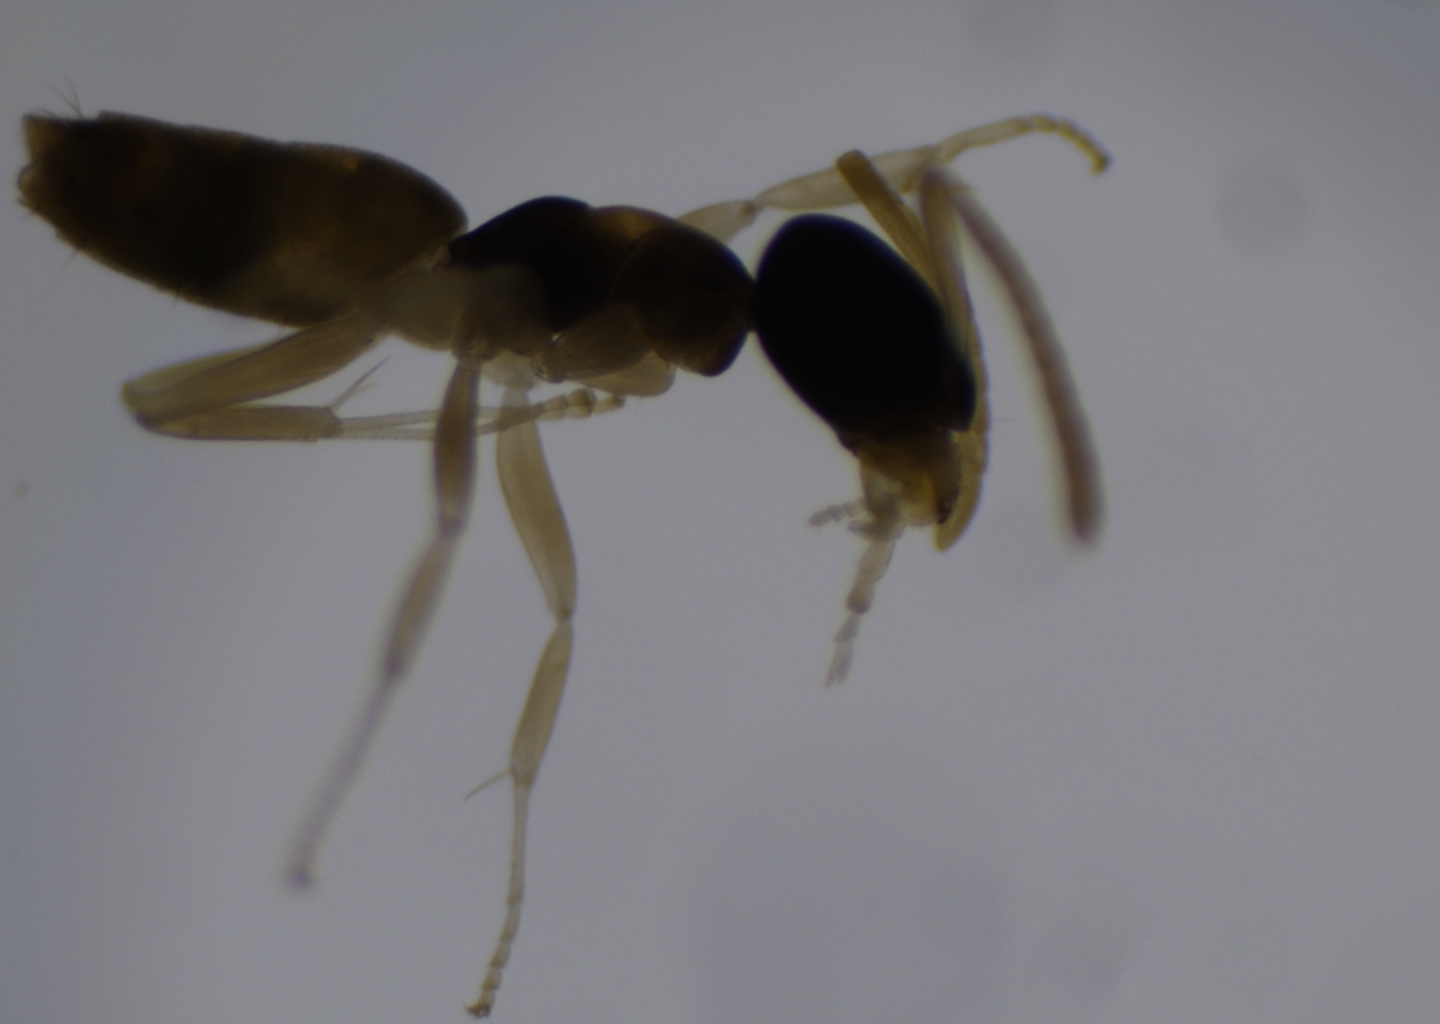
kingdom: Animalia
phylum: Arthropoda
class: Insecta
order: Hymenoptera
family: Formicidae
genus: Tapinoma
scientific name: Tapinoma melanocephalum
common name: Ghost ant
